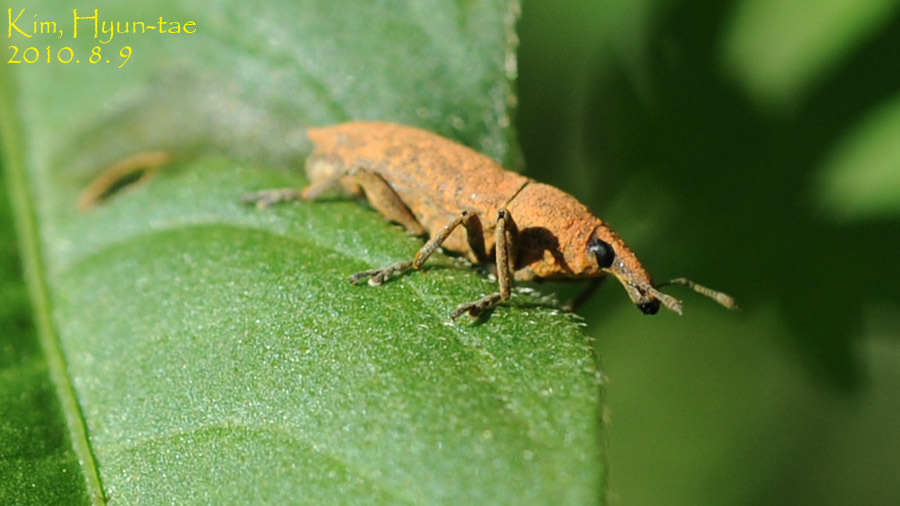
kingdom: Animalia
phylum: Arthropoda
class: Insecta
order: Coleoptera
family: Curculionidae
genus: Lixus
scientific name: Lixus impressiventris
